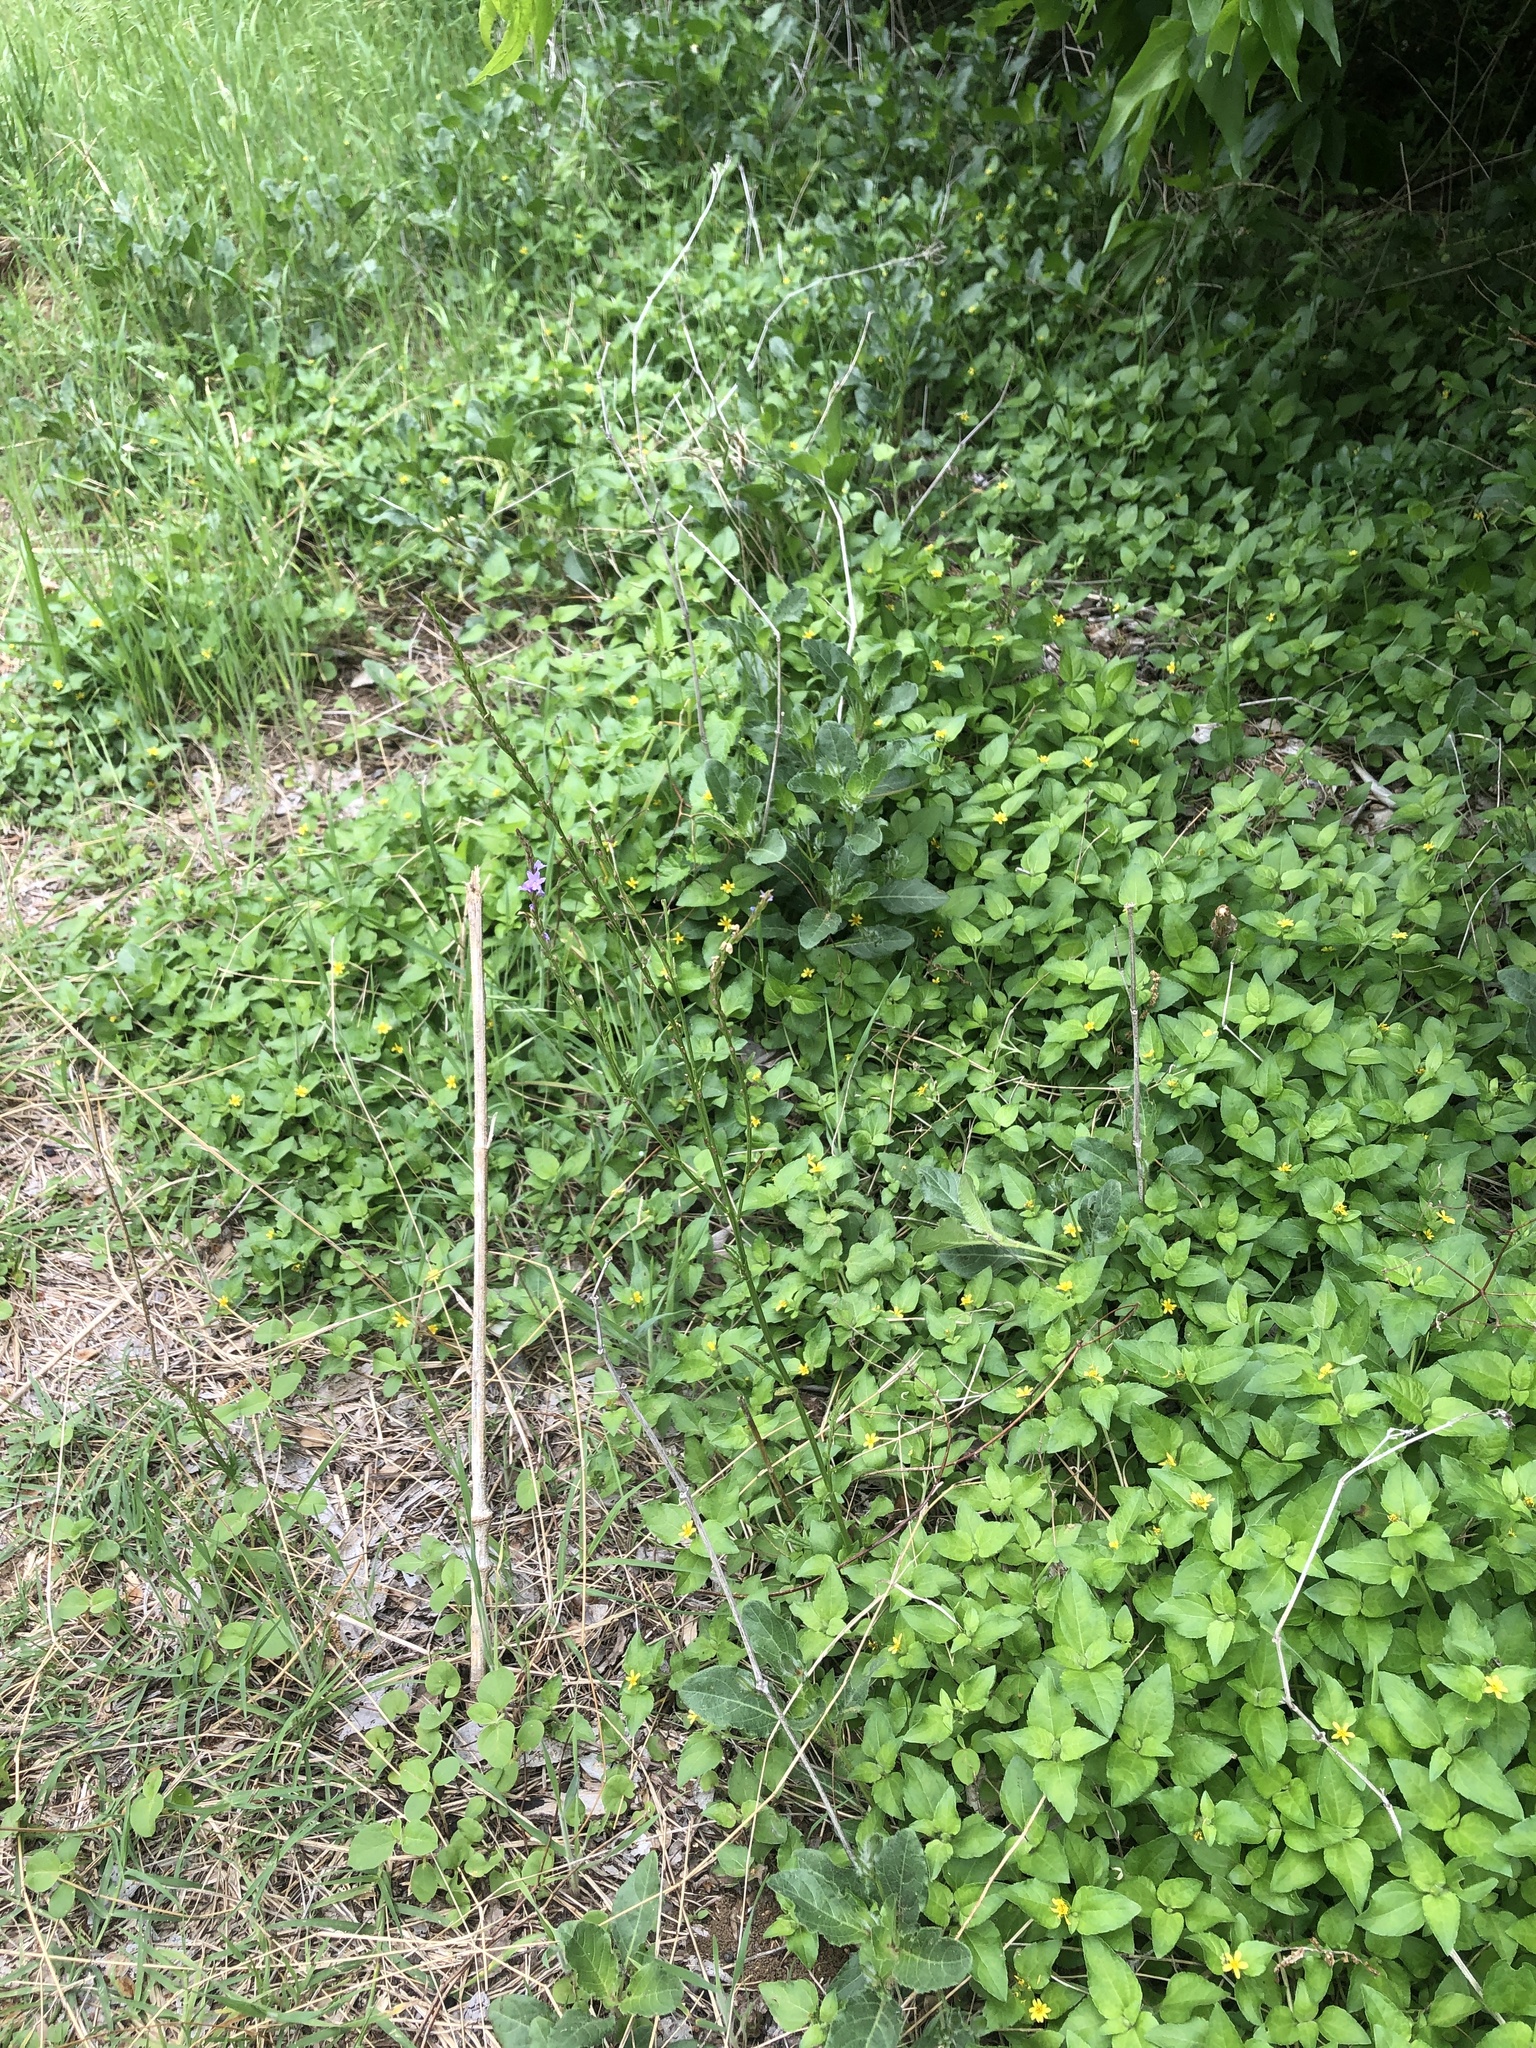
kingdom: Plantae
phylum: Tracheophyta
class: Magnoliopsida
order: Lamiales
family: Verbenaceae
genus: Verbena
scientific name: Verbena halei
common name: Texas vervain
